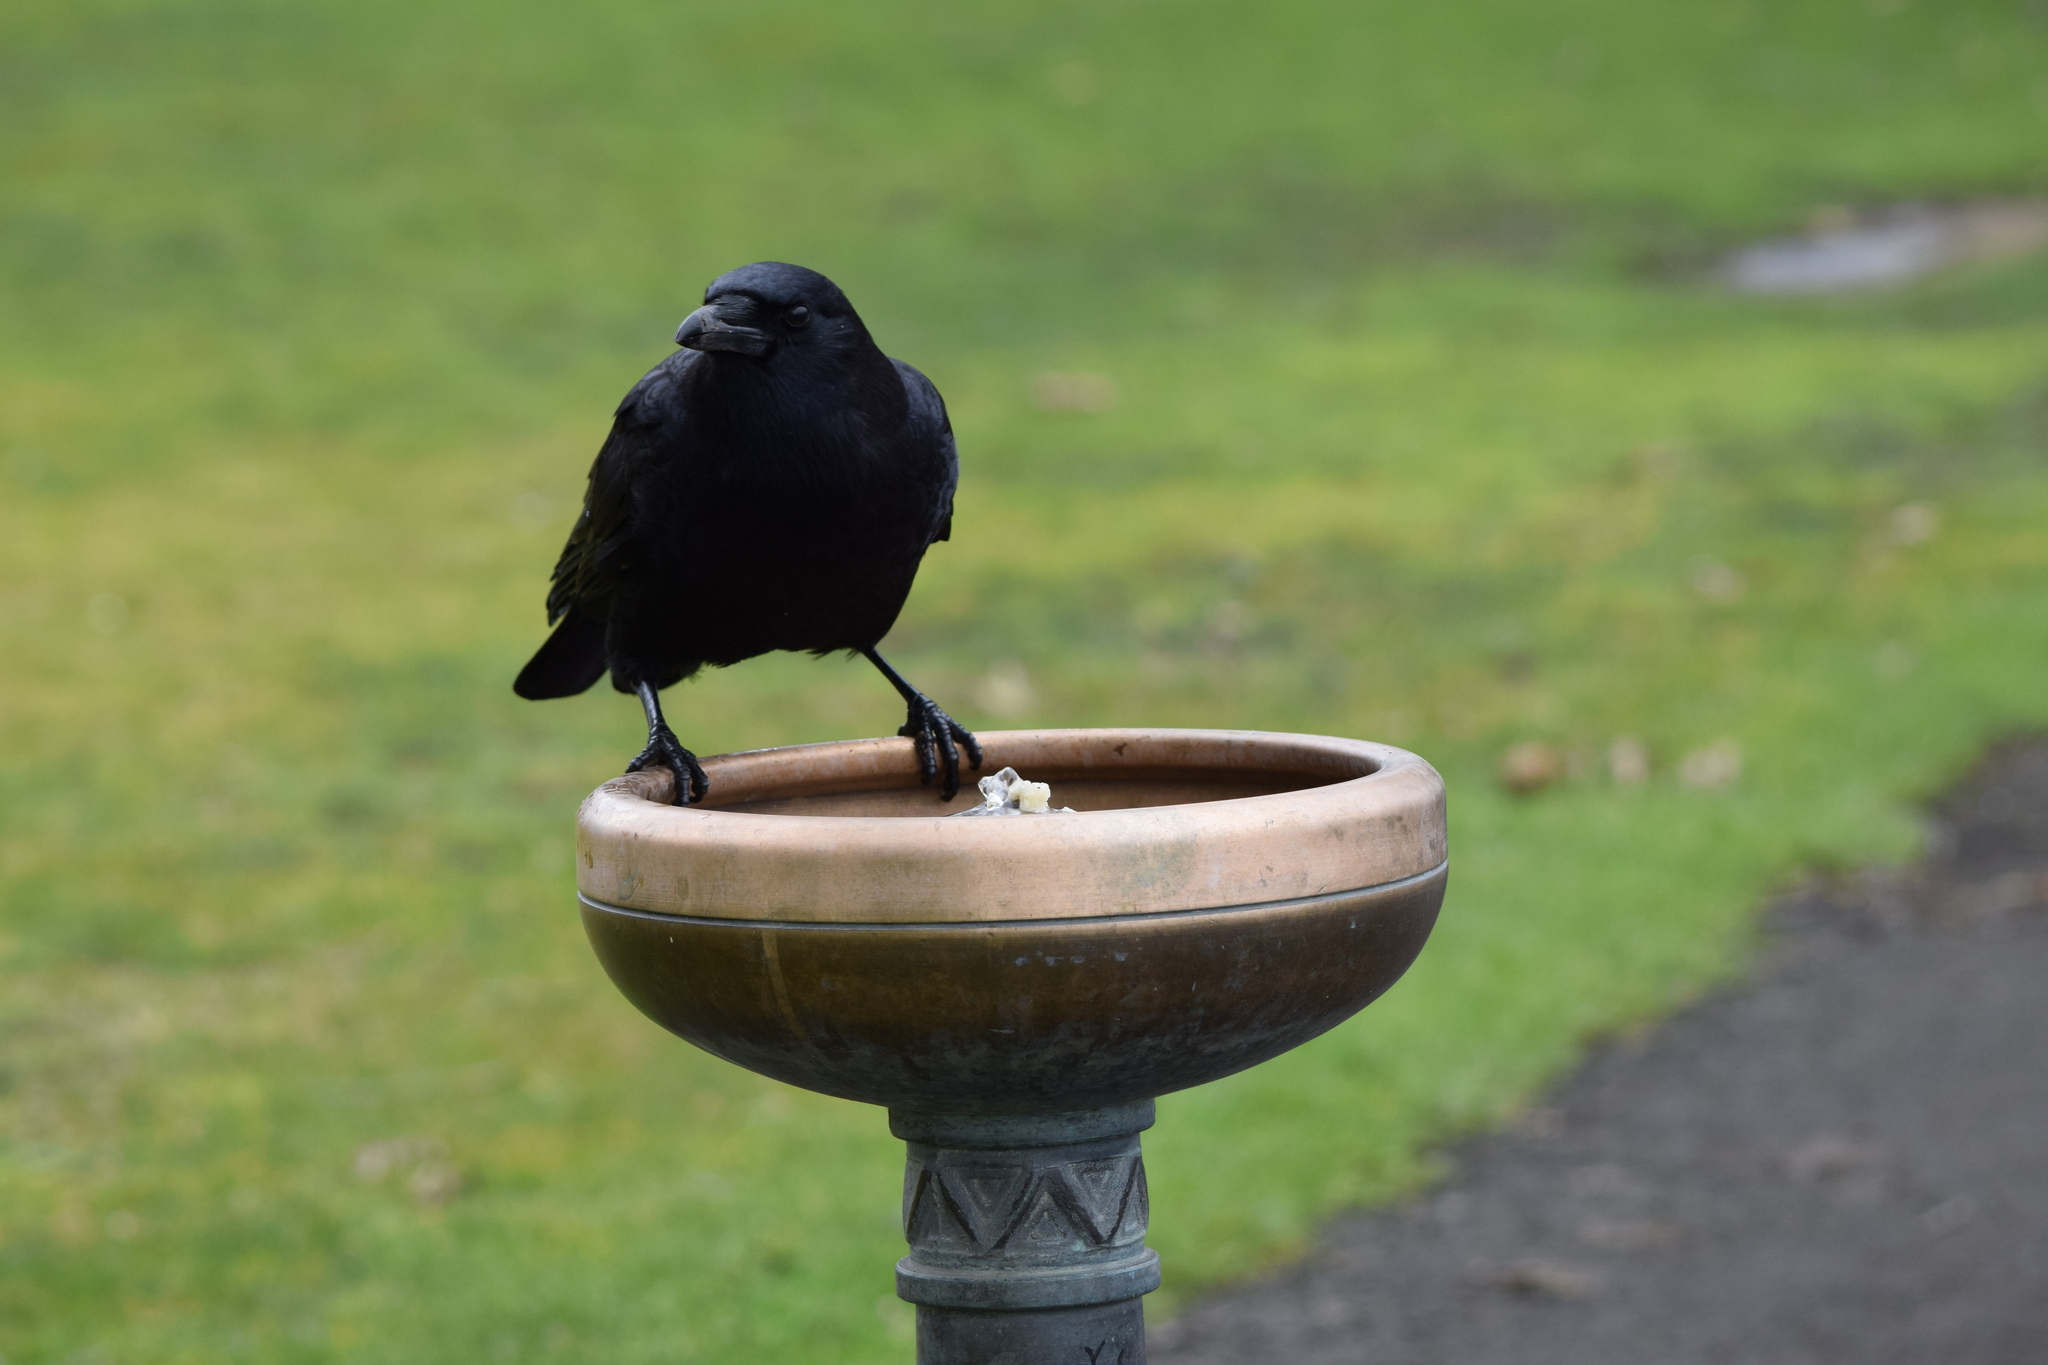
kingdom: Animalia
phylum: Chordata
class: Aves
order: Passeriformes
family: Corvidae
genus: Corvus
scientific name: Corvus brachyrhynchos
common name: American crow
